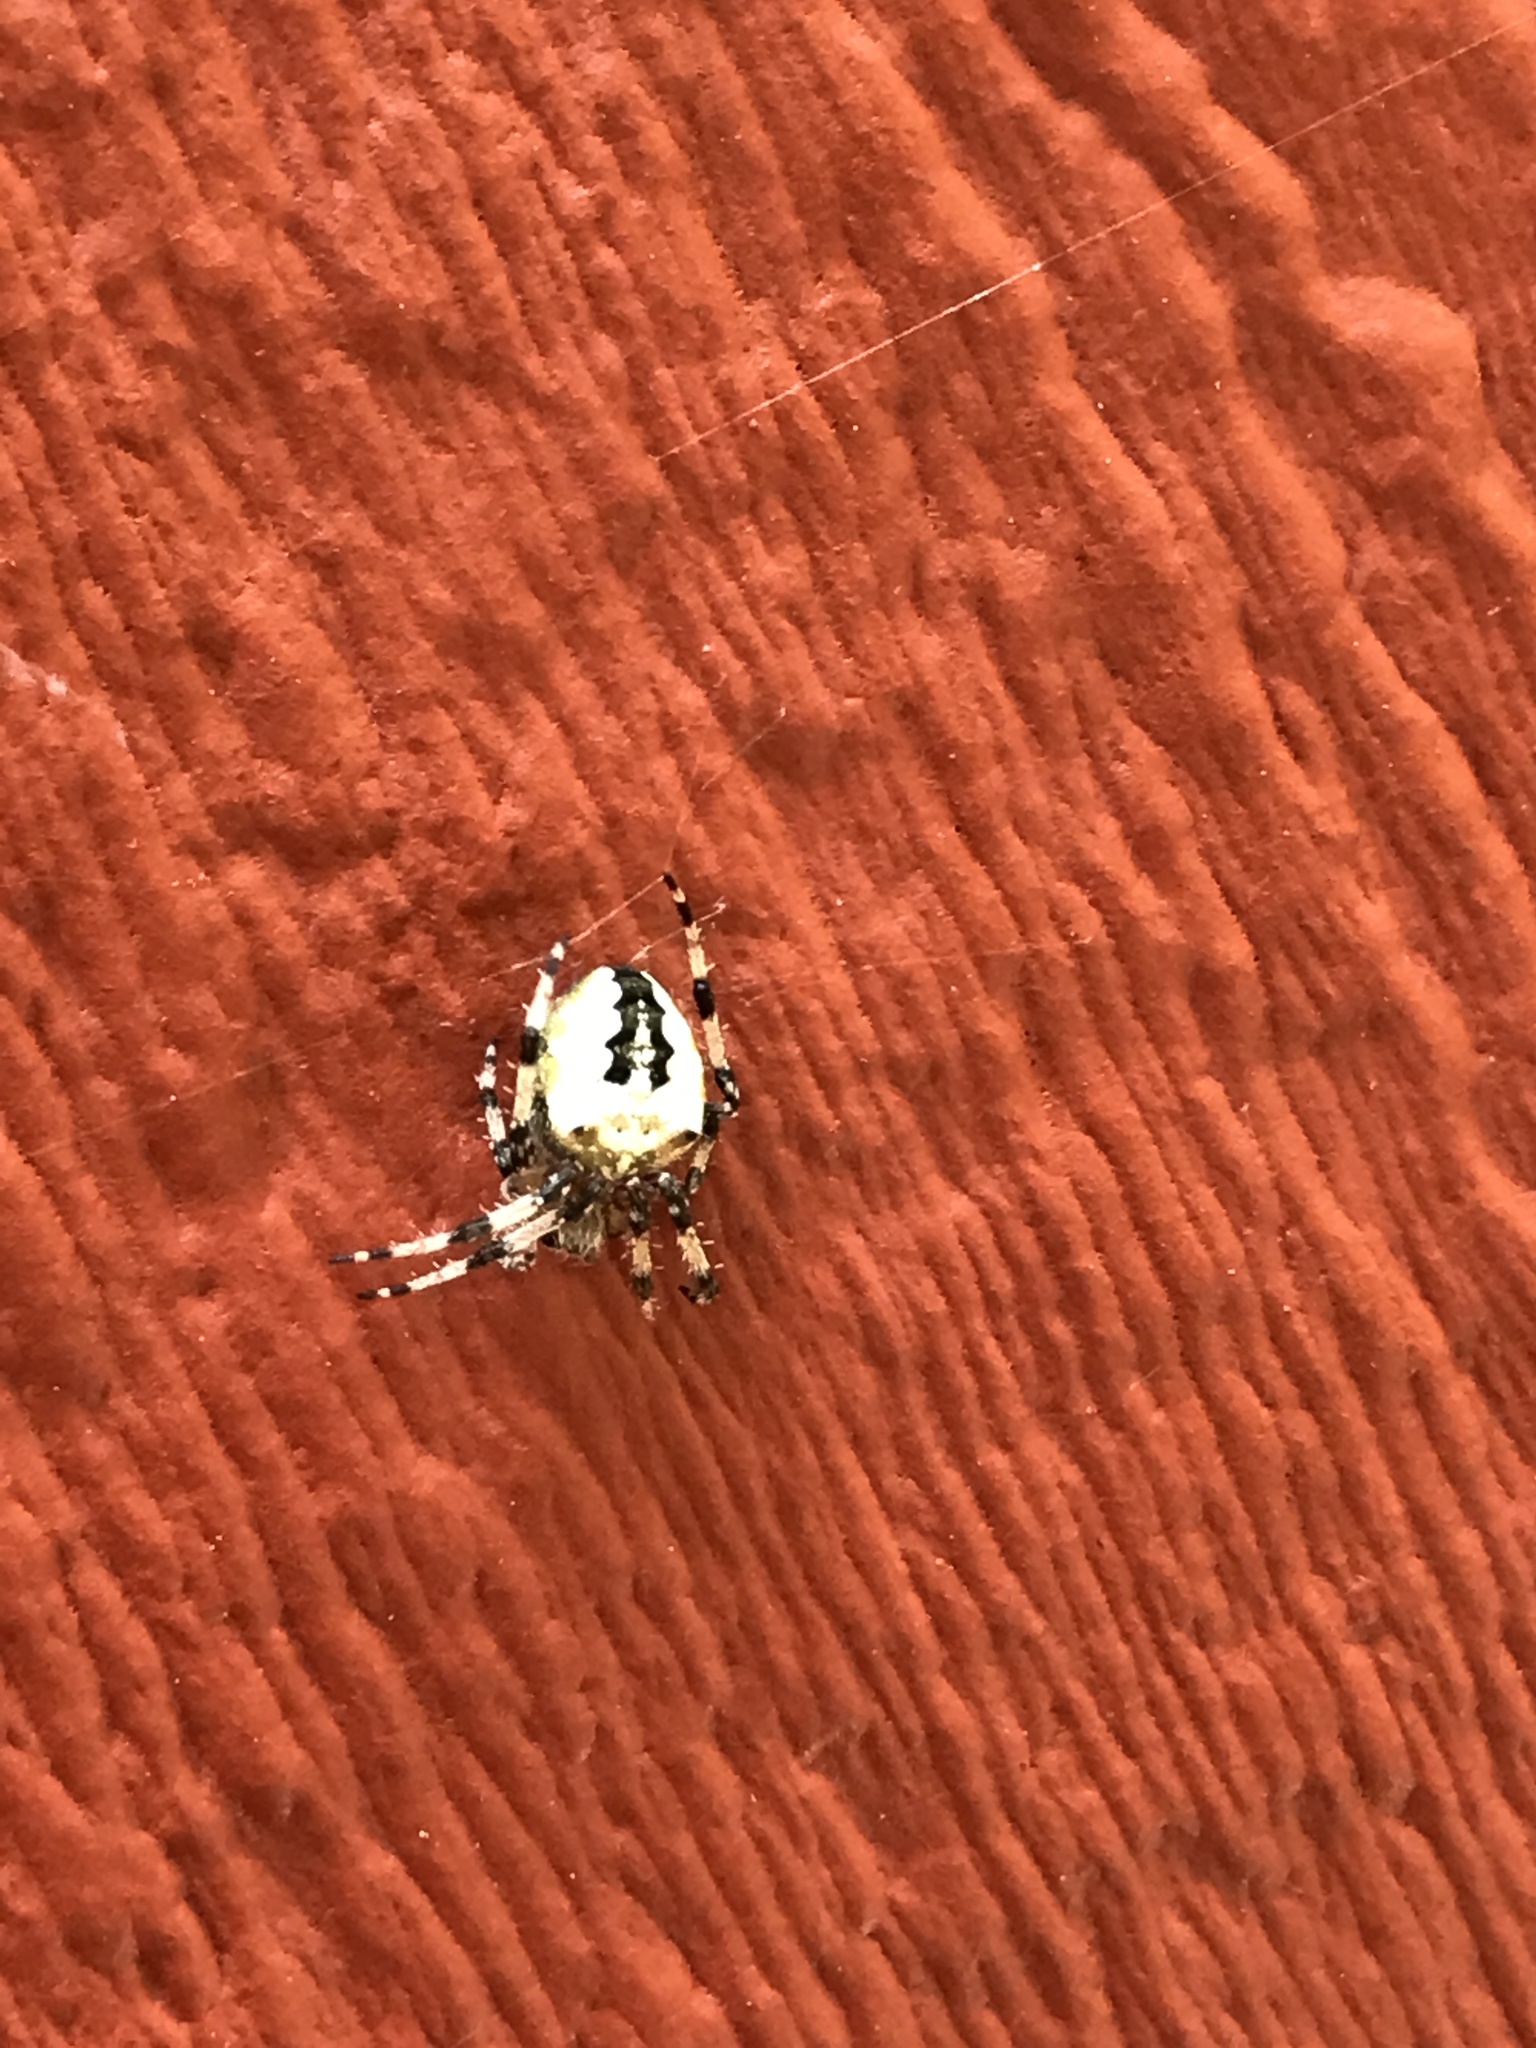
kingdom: Animalia
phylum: Arthropoda
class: Arachnida
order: Araneae
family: Araneidae
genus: Araneus
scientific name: Araneus nordmanni
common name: Nordmann's orbweaver
